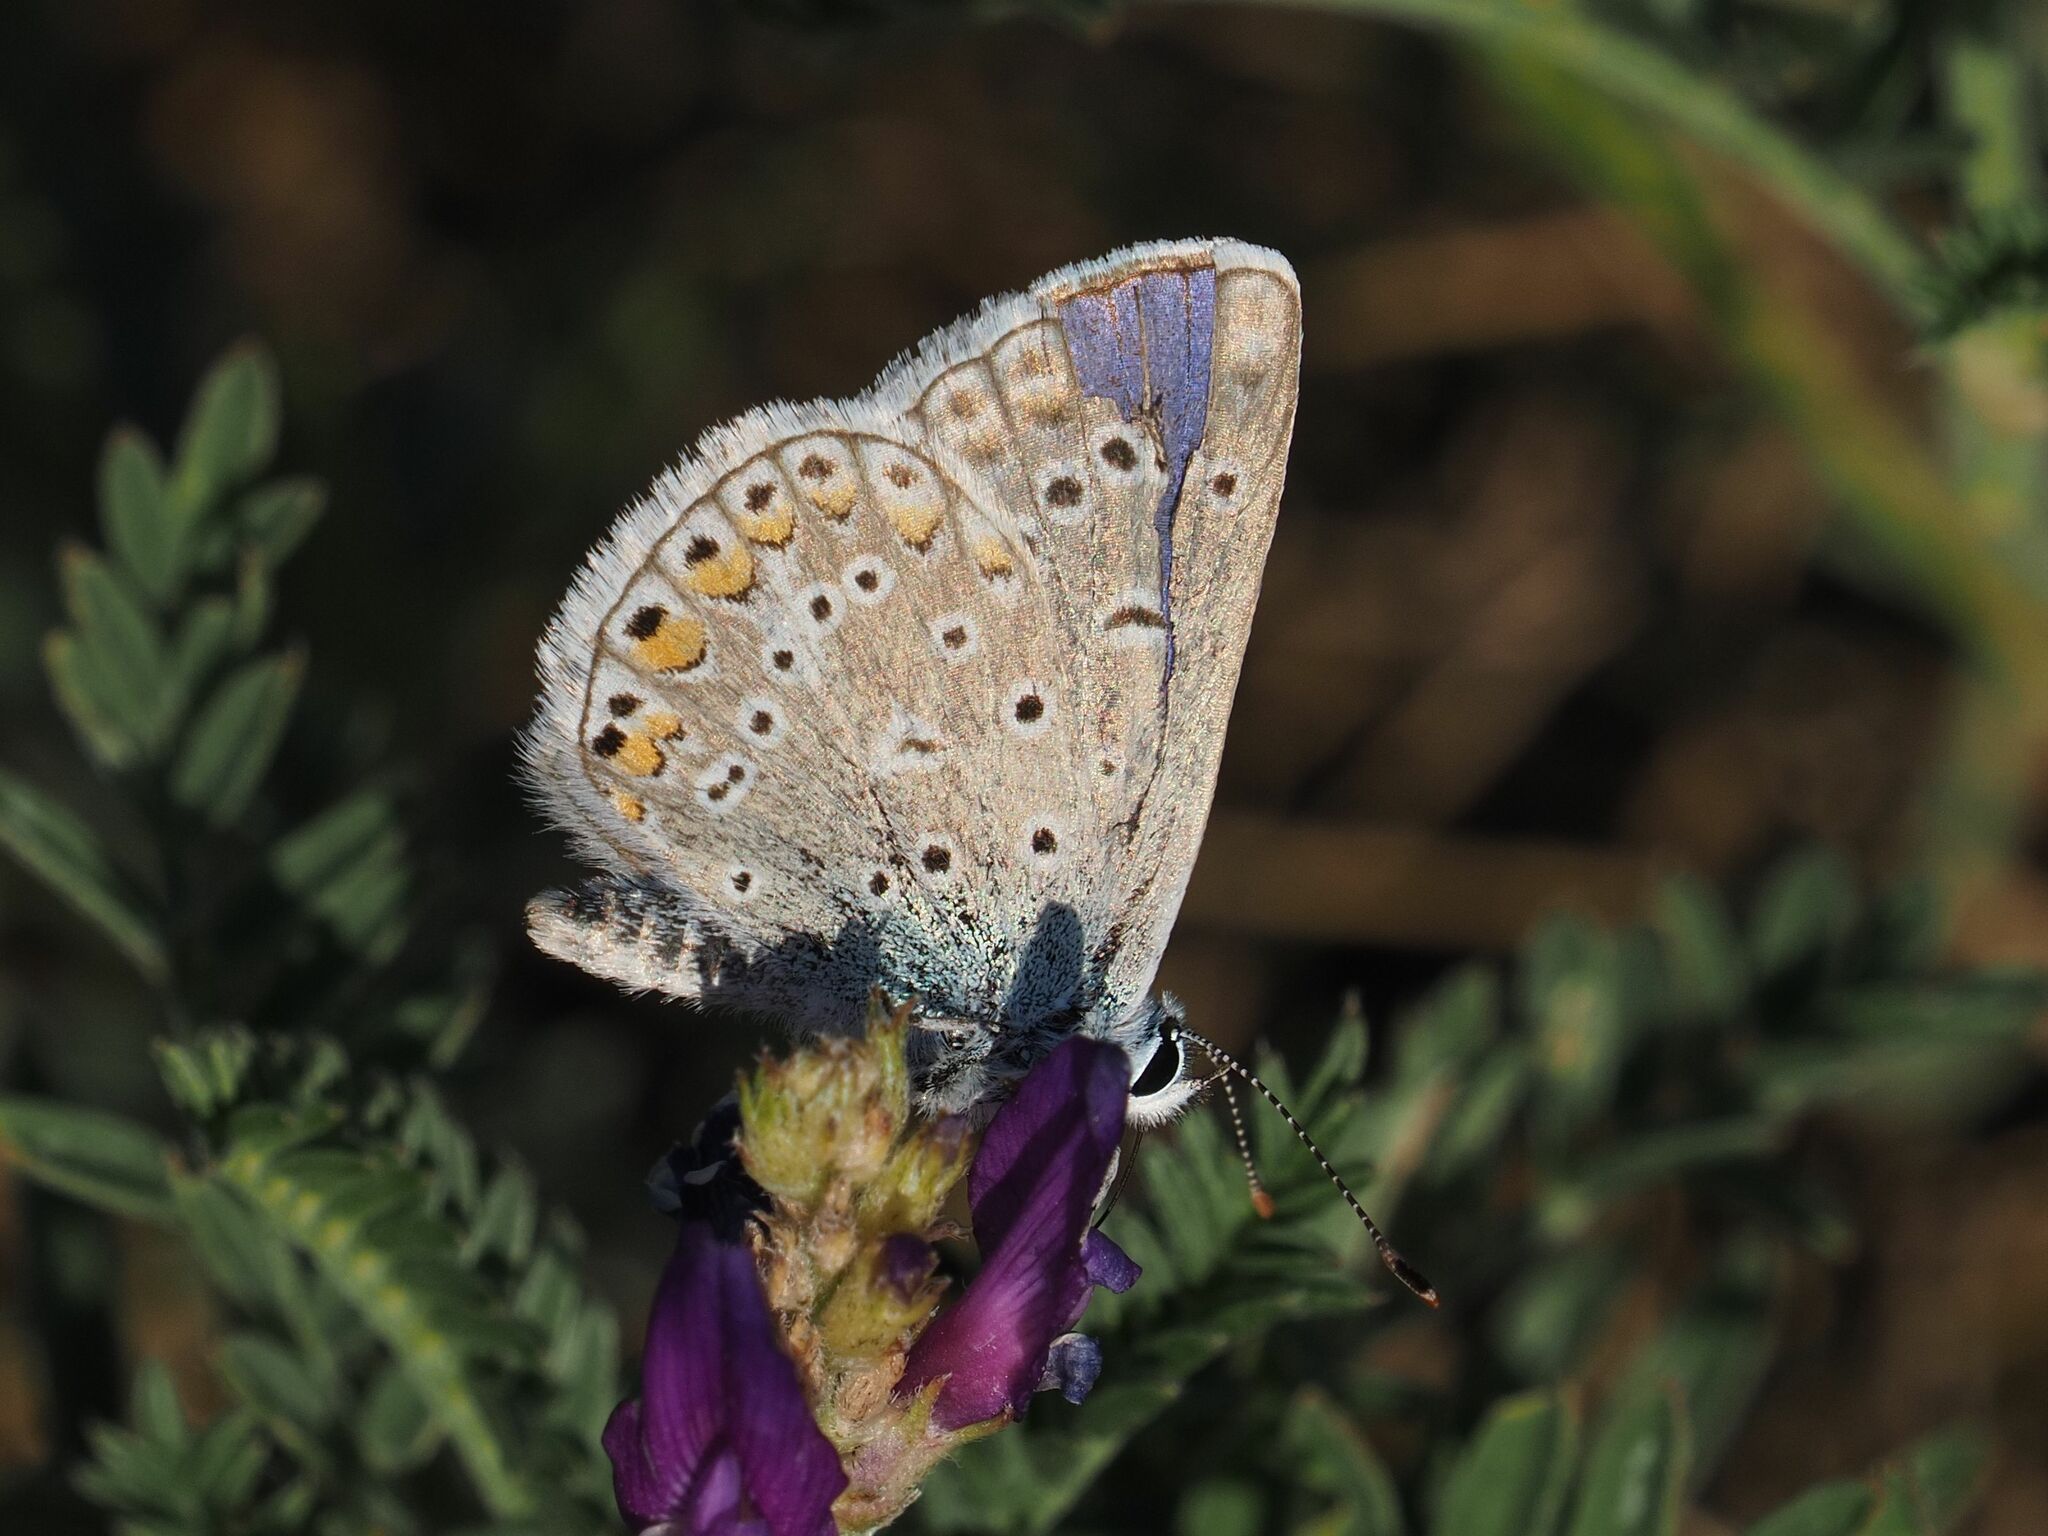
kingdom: Animalia
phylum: Arthropoda
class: Insecta
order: Lepidoptera
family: Lycaenidae
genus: Polyommatus
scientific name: Polyommatus icarus
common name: Common blue
